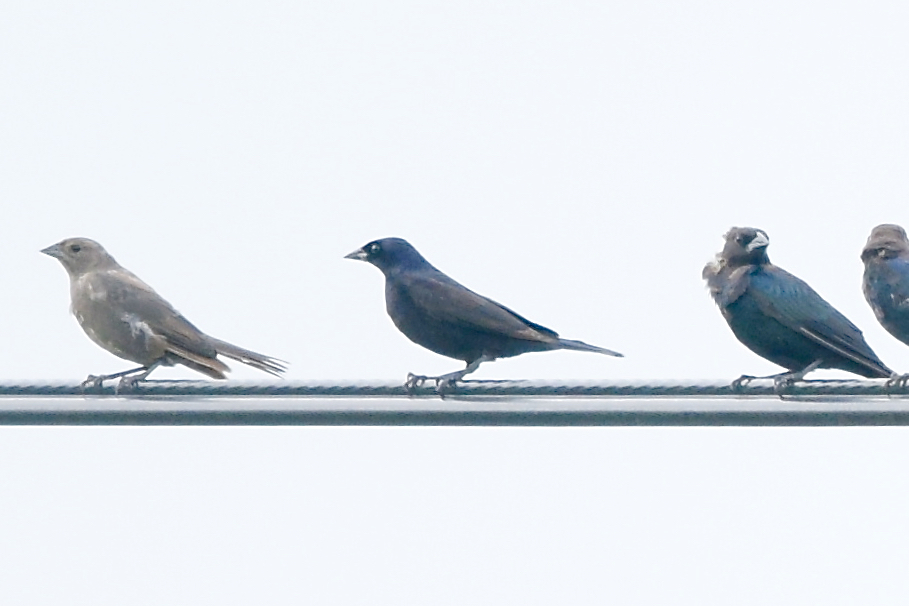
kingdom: Animalia
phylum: Chordata
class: Aves
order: Passeriformes
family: Icteridae
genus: Molothrus
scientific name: Molothrus bonariensis
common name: Shiny cowbird
